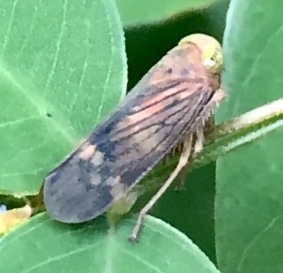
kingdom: Animalia
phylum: Arthropoda
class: Insecta
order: Hemiptera
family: Cicadellidae
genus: Jikradia
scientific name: Jikradia olitoria
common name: Coppery leafhopper
